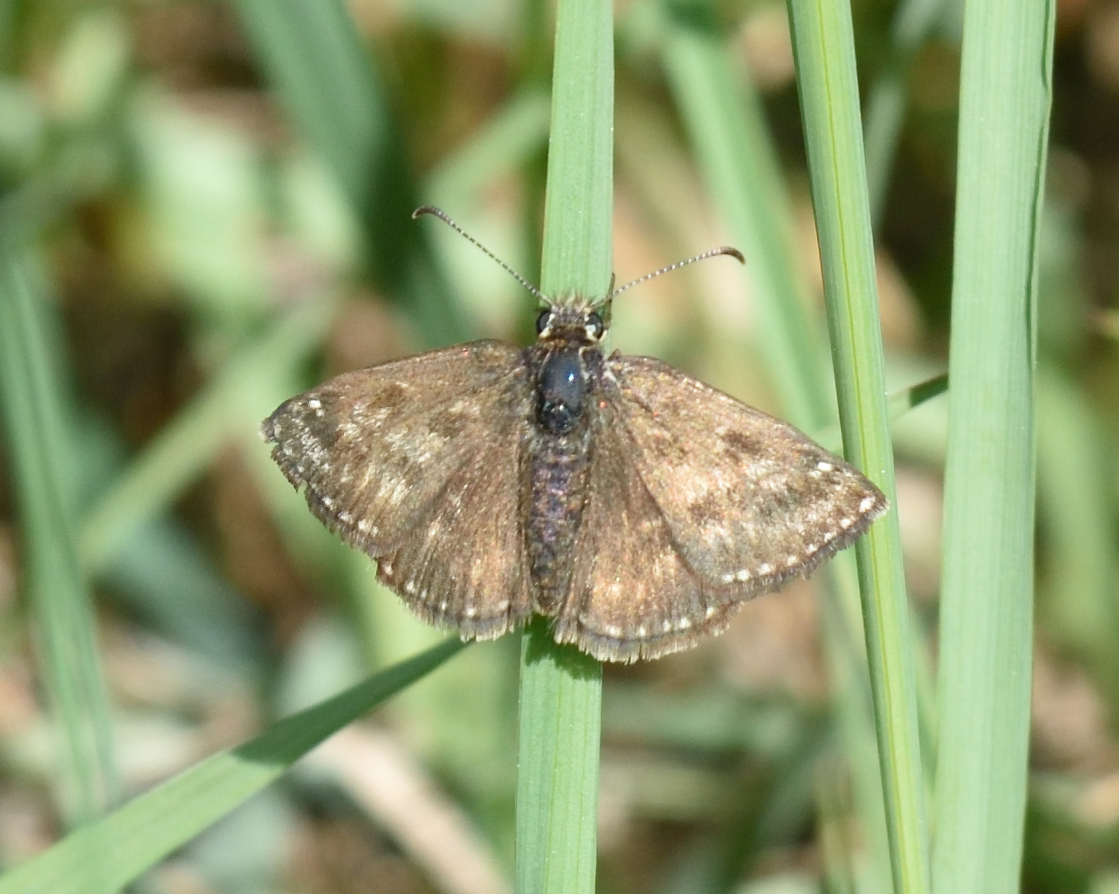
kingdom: Animalia
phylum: Arthropoda
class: Insecta
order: Lepidoptera
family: Hesperiidae
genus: Erynnis
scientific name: Erynnis tages
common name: Dingy skipper
